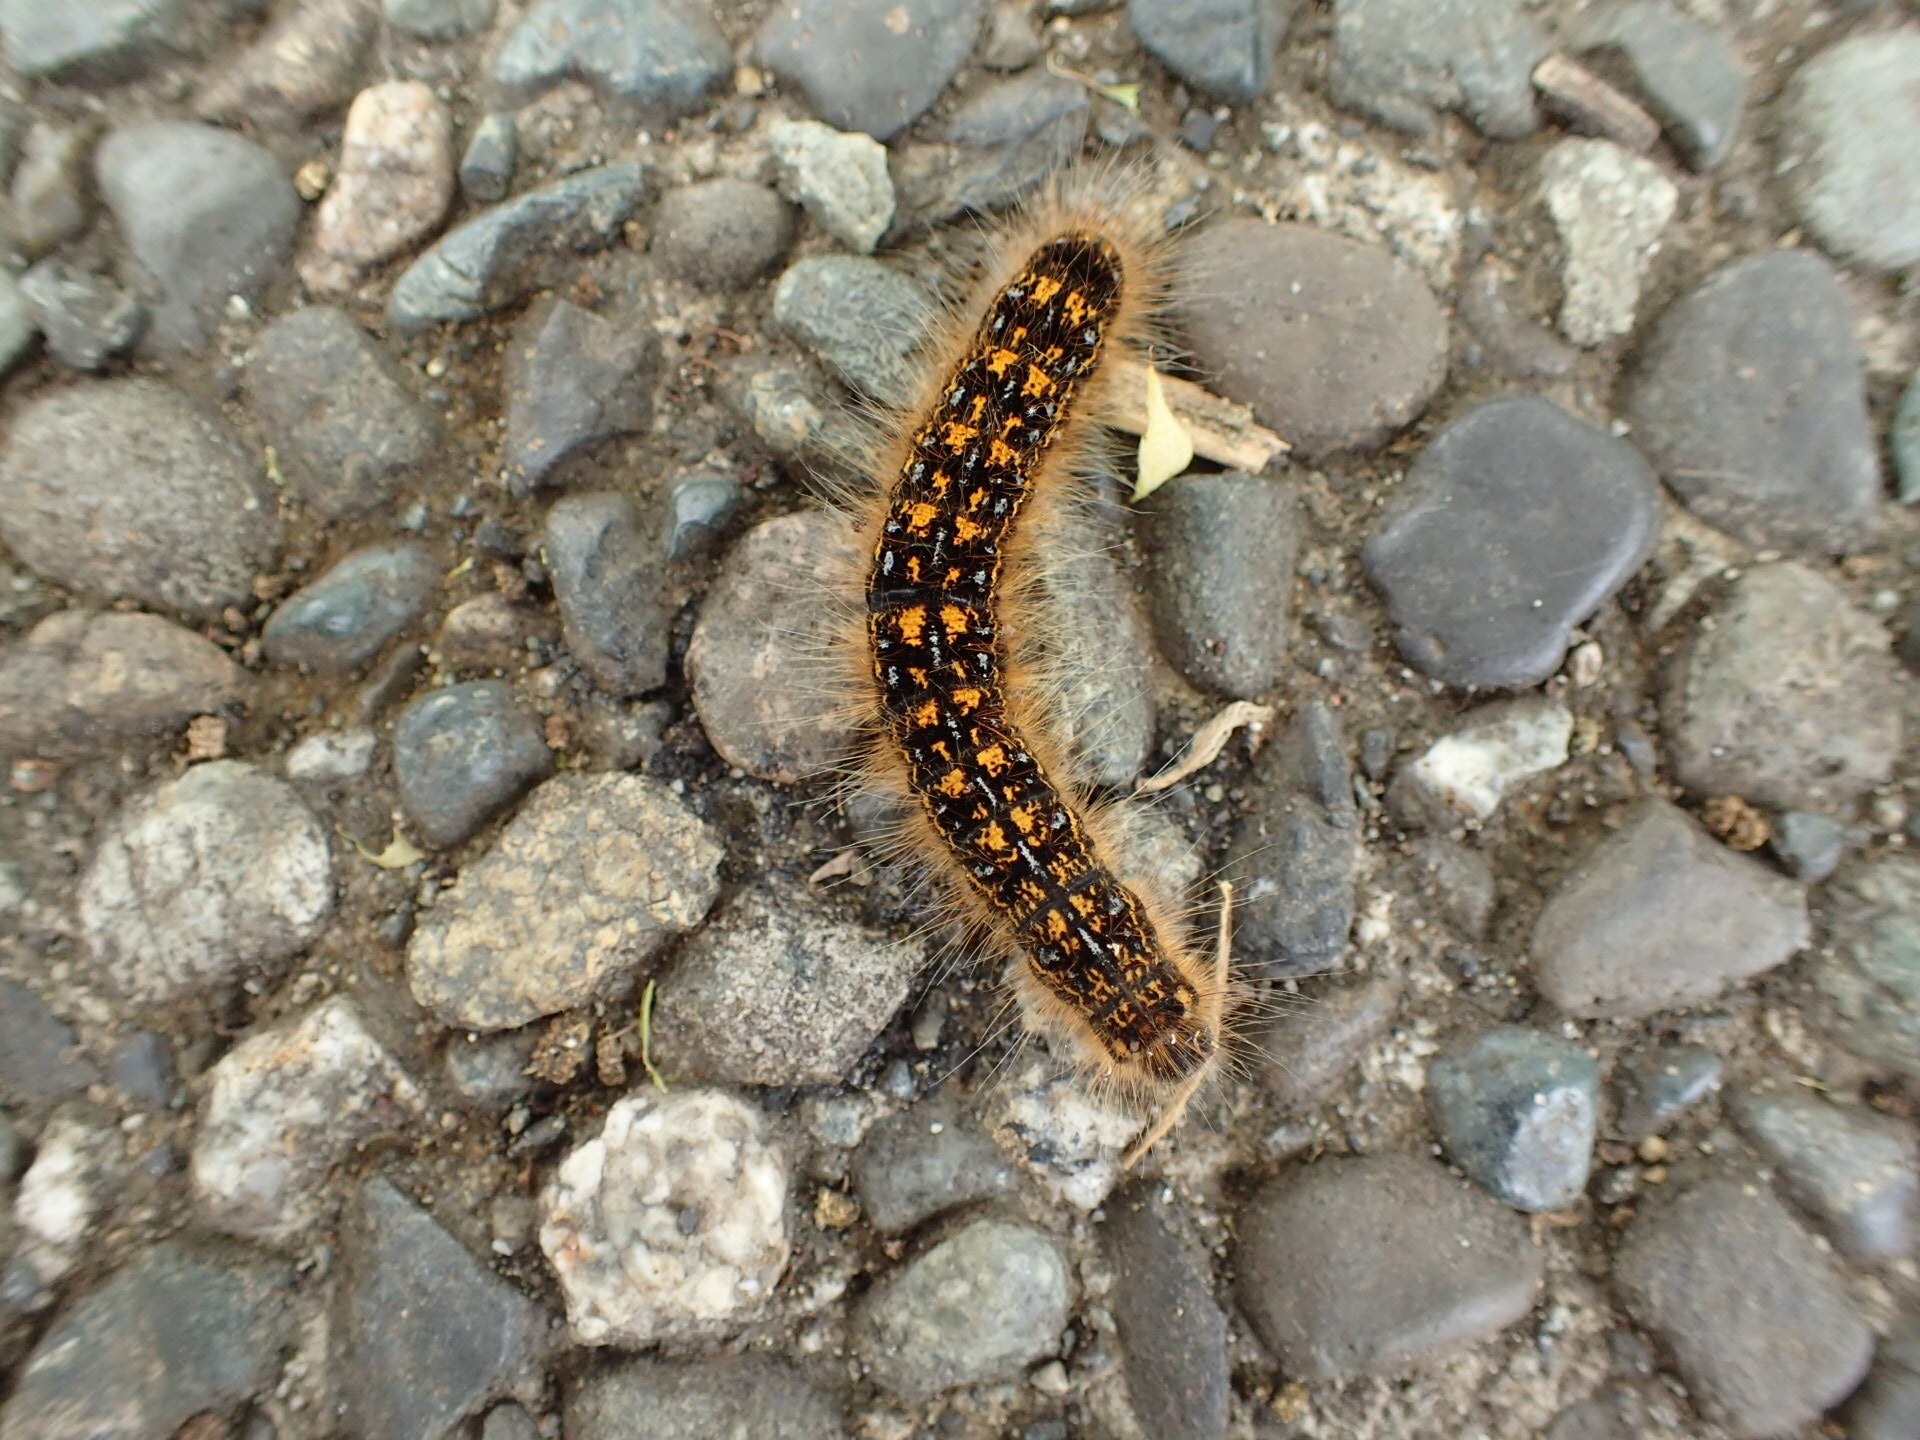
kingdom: Animalia
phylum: Arthropoda
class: Insecta
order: Lepidoptera
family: Lasiocampidae
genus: Malacosoma
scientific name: Malacosoma californica
